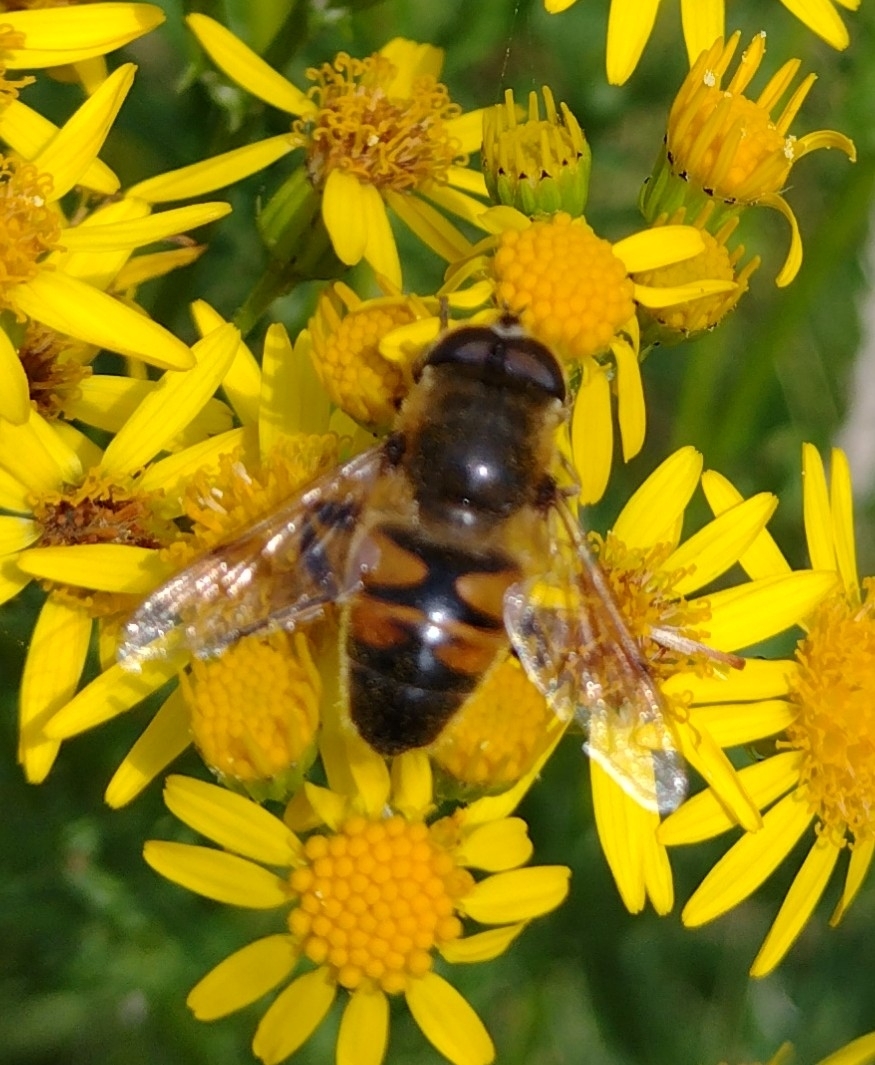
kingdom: Animalia
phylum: Arthropoda
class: Insecta
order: Diptera
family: Syrphidae
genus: Eristalis
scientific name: Eristalis tenax
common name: Drone fly
